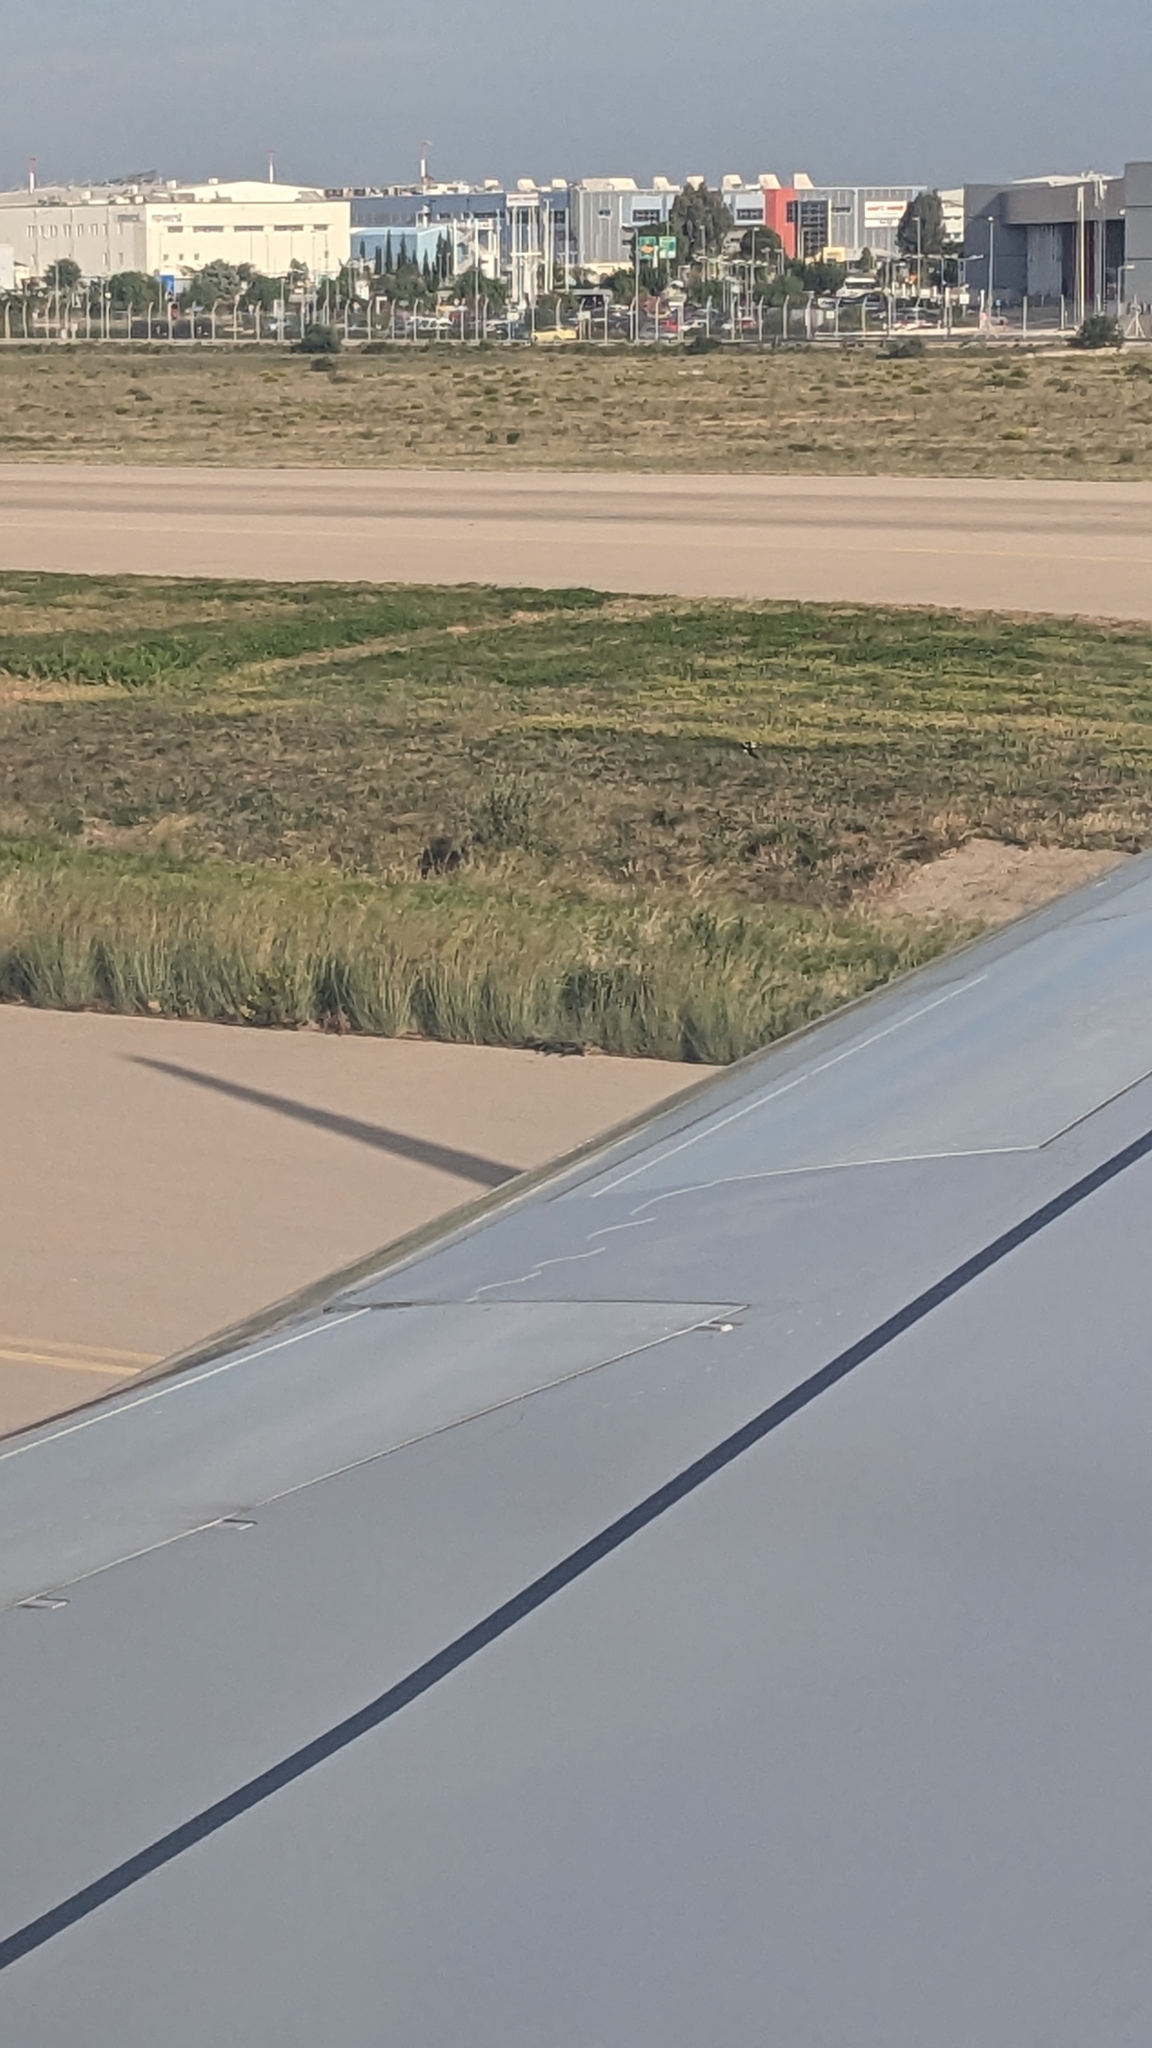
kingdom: Animalia
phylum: Chordata
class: Aves
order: Passeriformes
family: Corvidae
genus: Pica
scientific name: Pica pica
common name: Eurasian magpie
